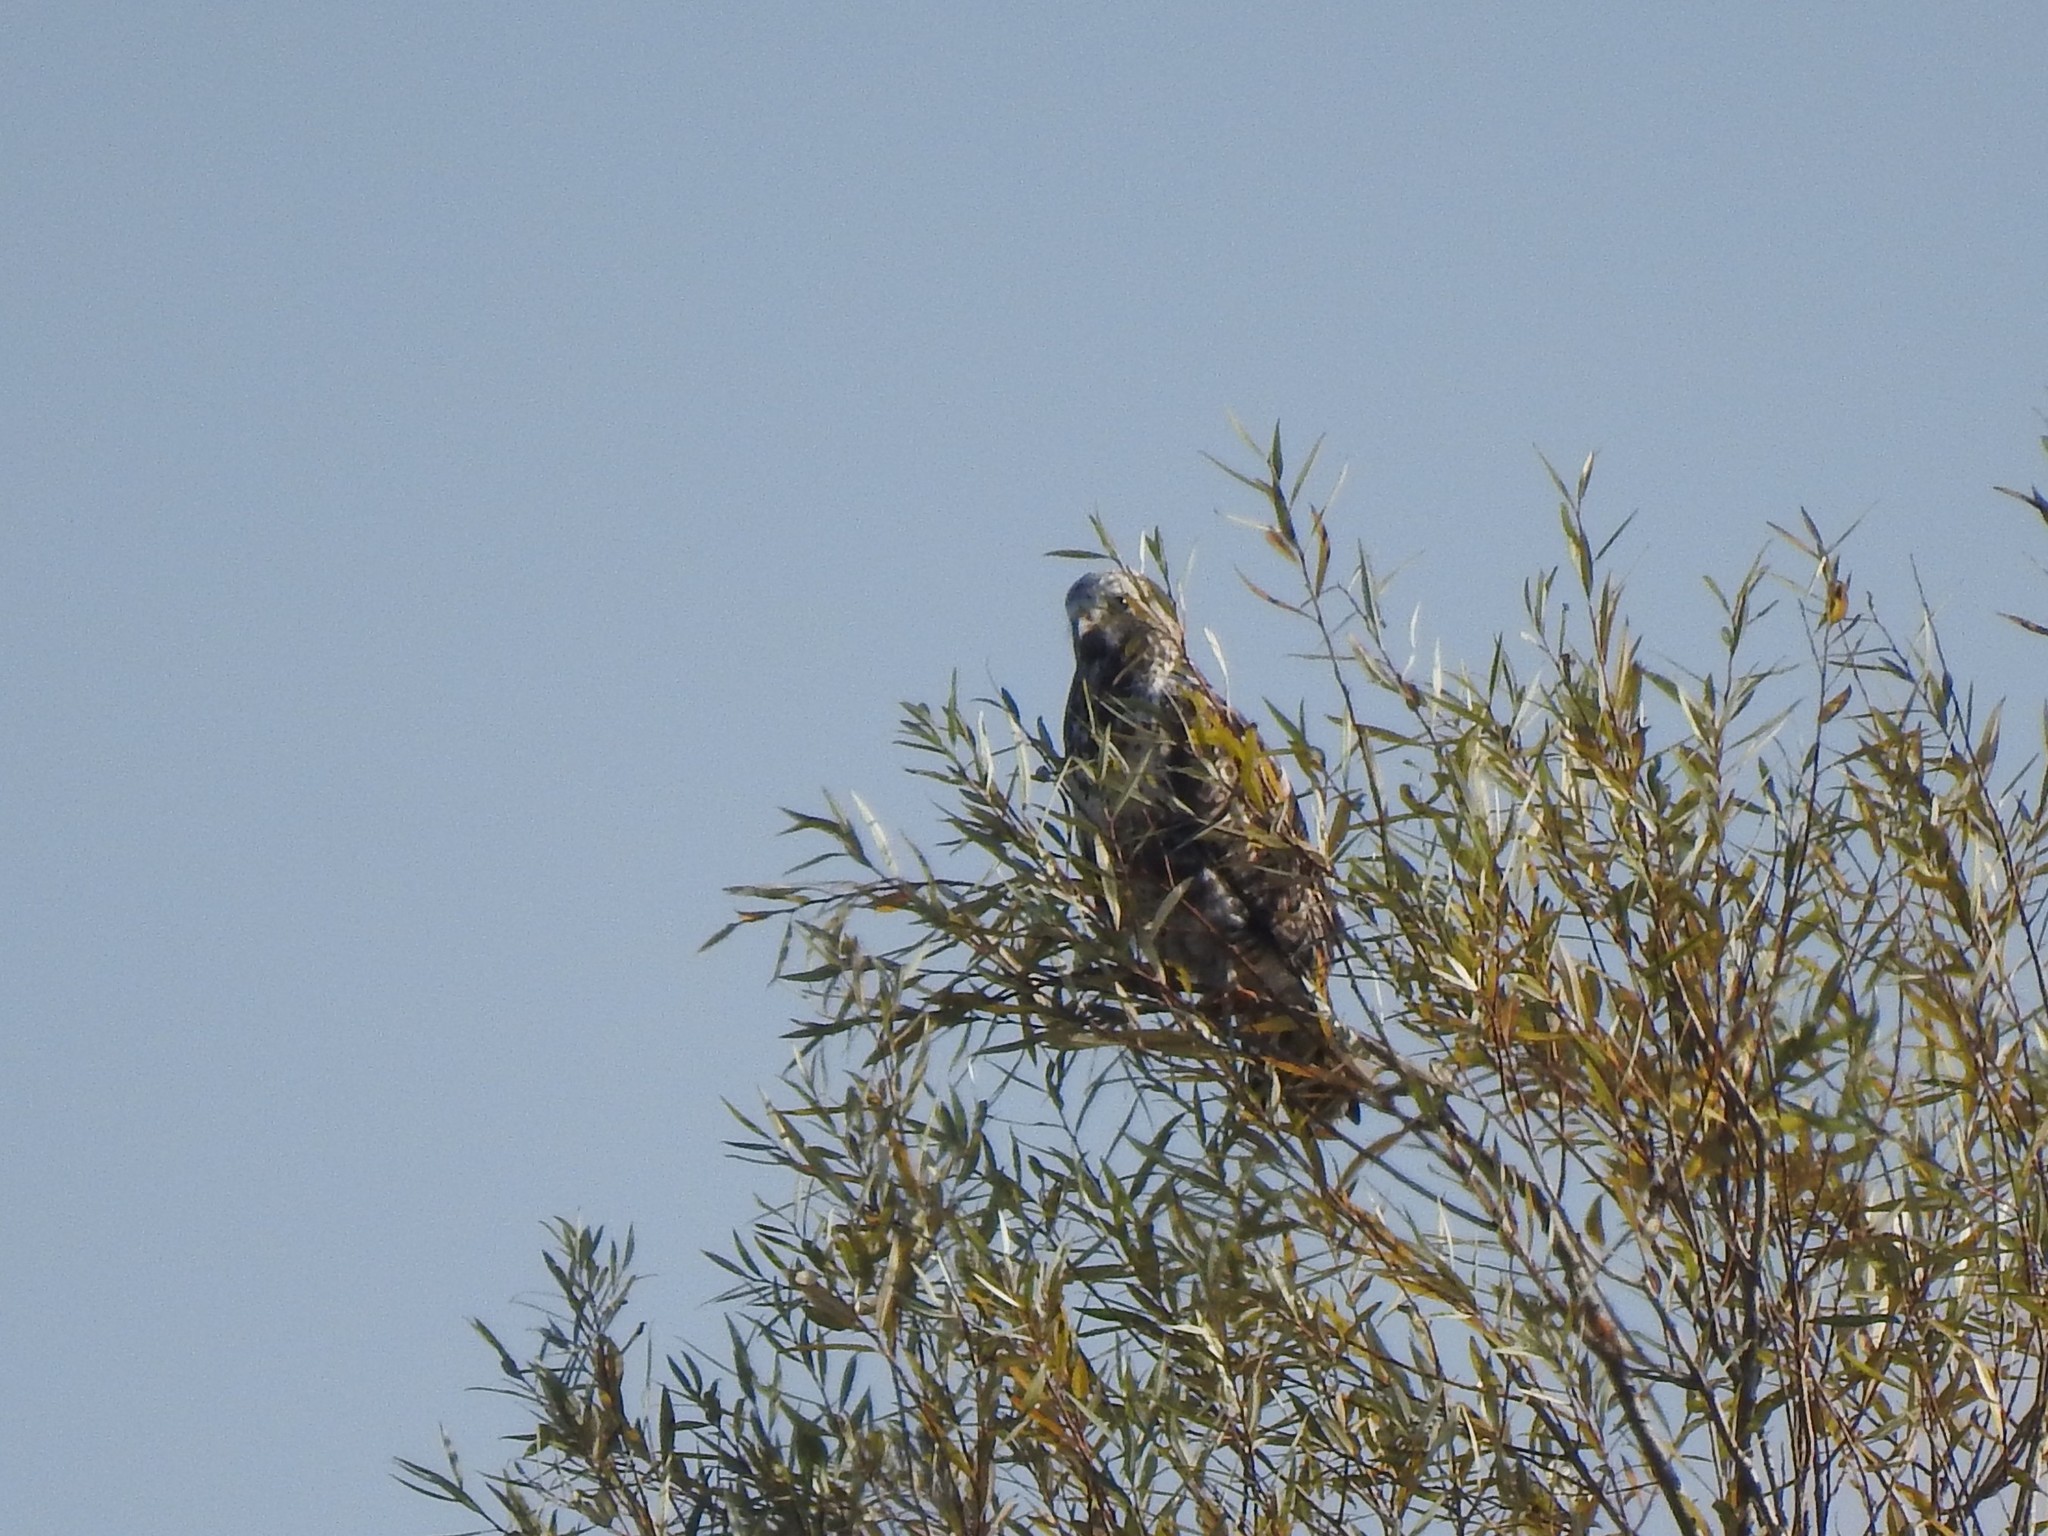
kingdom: Animalia
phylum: Chordata
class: Aves
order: Accipitriformes
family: Accipitridae
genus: Buteo
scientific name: Buteo buteo
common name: Common buzzard
